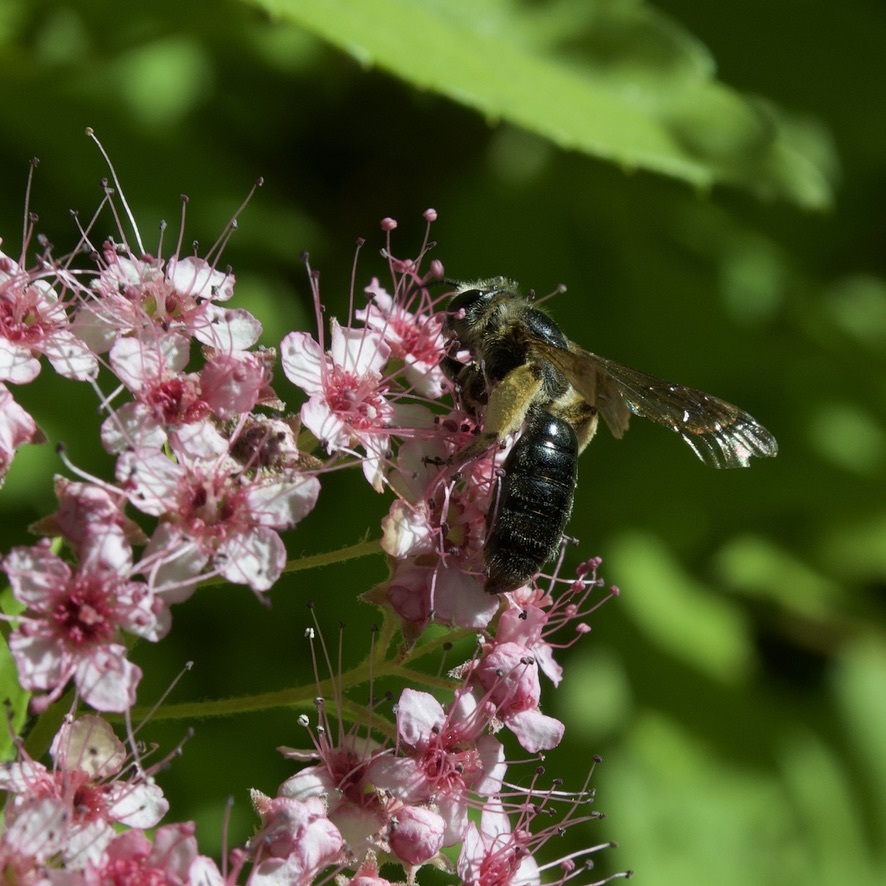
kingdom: Animalia
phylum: Arthropoda
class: Insecta
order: Hymenoptera
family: Andrenidae
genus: Andrena
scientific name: Andrena crataegi
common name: Hawthorn mining bee
